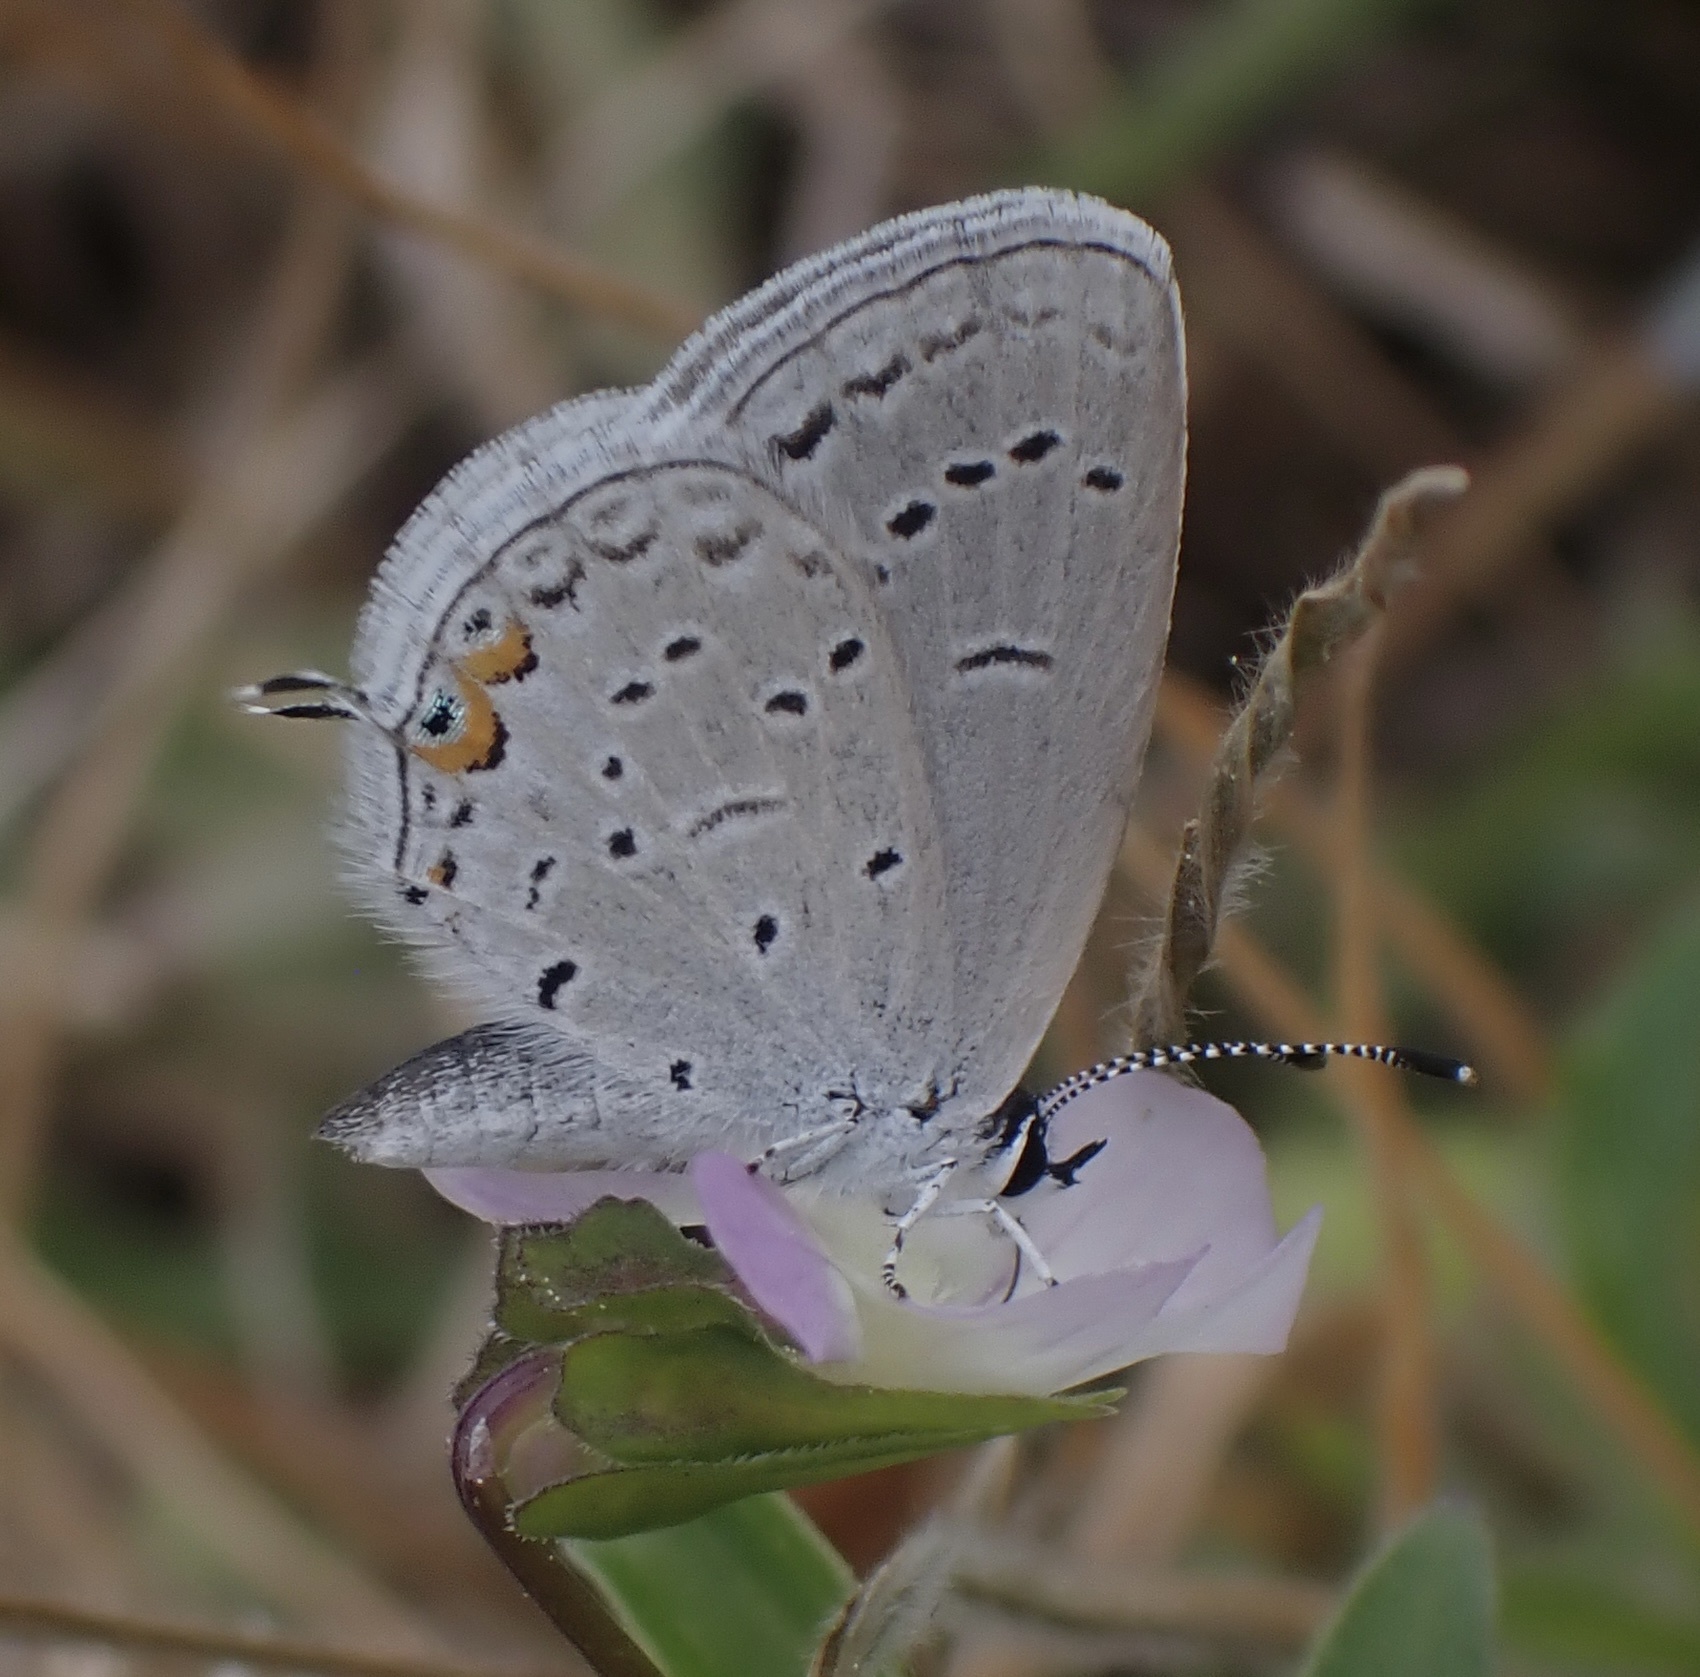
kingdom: Animalia
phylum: Arthropoda
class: Insecta
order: Lepidoptera
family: Lycaenidae
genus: Elkalyce
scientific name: Elkalyce comyntas
